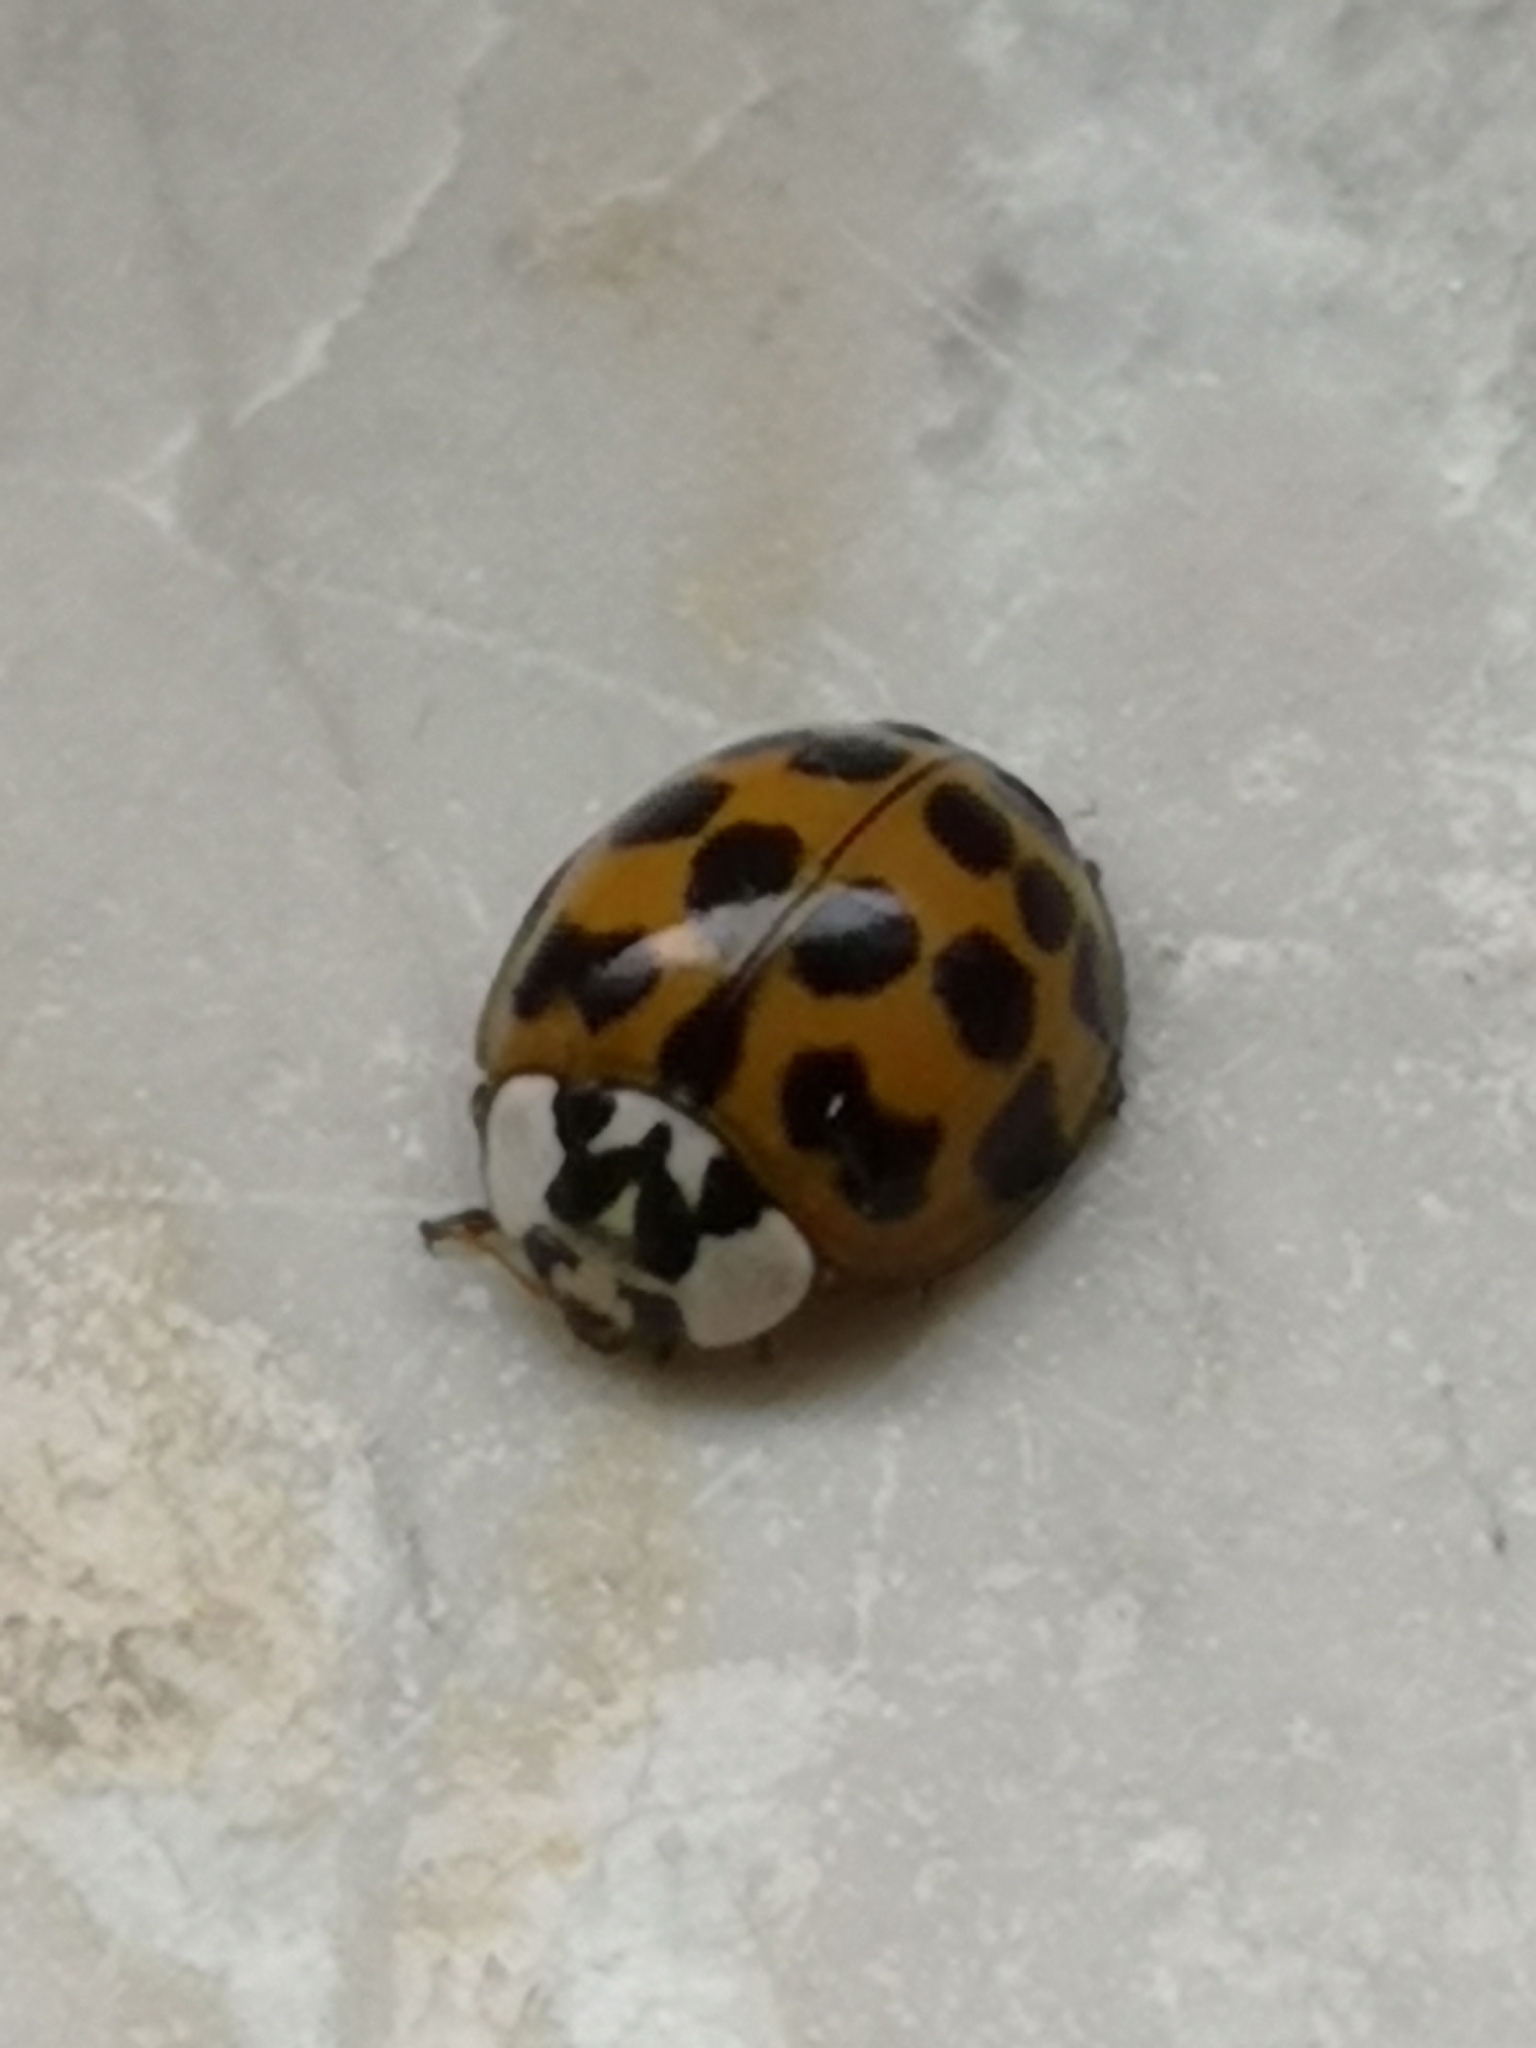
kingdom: Animalia
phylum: Arthropoda
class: Insecta
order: Coleoptera
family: Coccinellidae
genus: Harmonia
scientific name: Harmonia axyridis
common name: Harlequin ladybird
